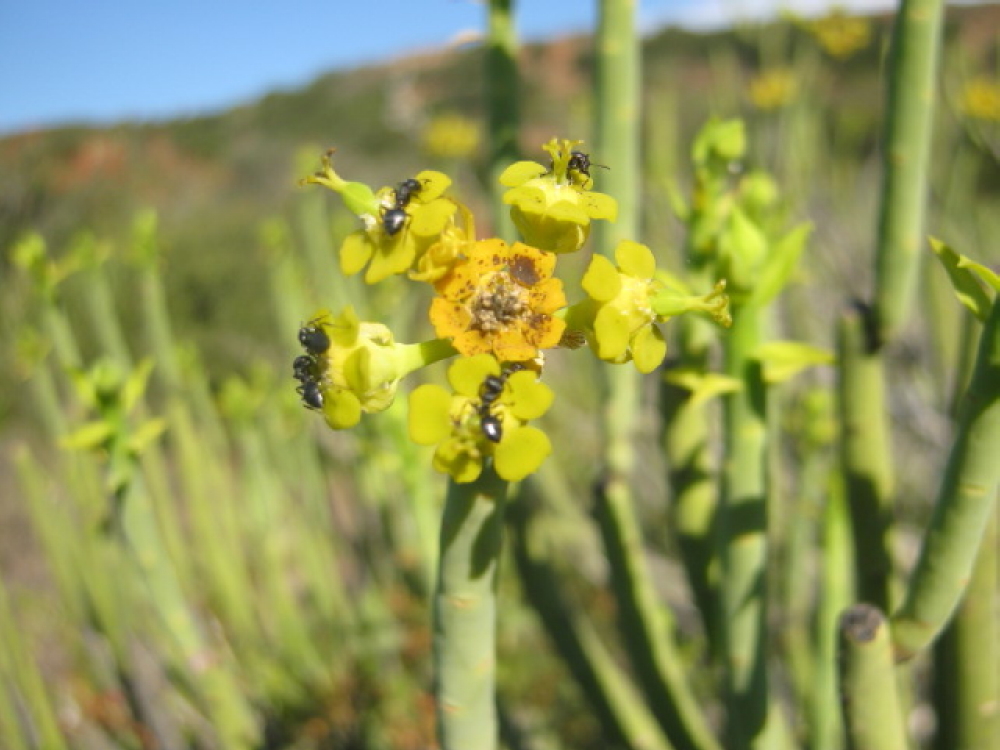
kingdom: Plantae
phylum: Tracheophyta
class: Magnoliopsida
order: Malpighiales
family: Euphorbiaceae
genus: Euphorbia
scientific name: Euphorbia mauritanica
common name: Jackal's-food
